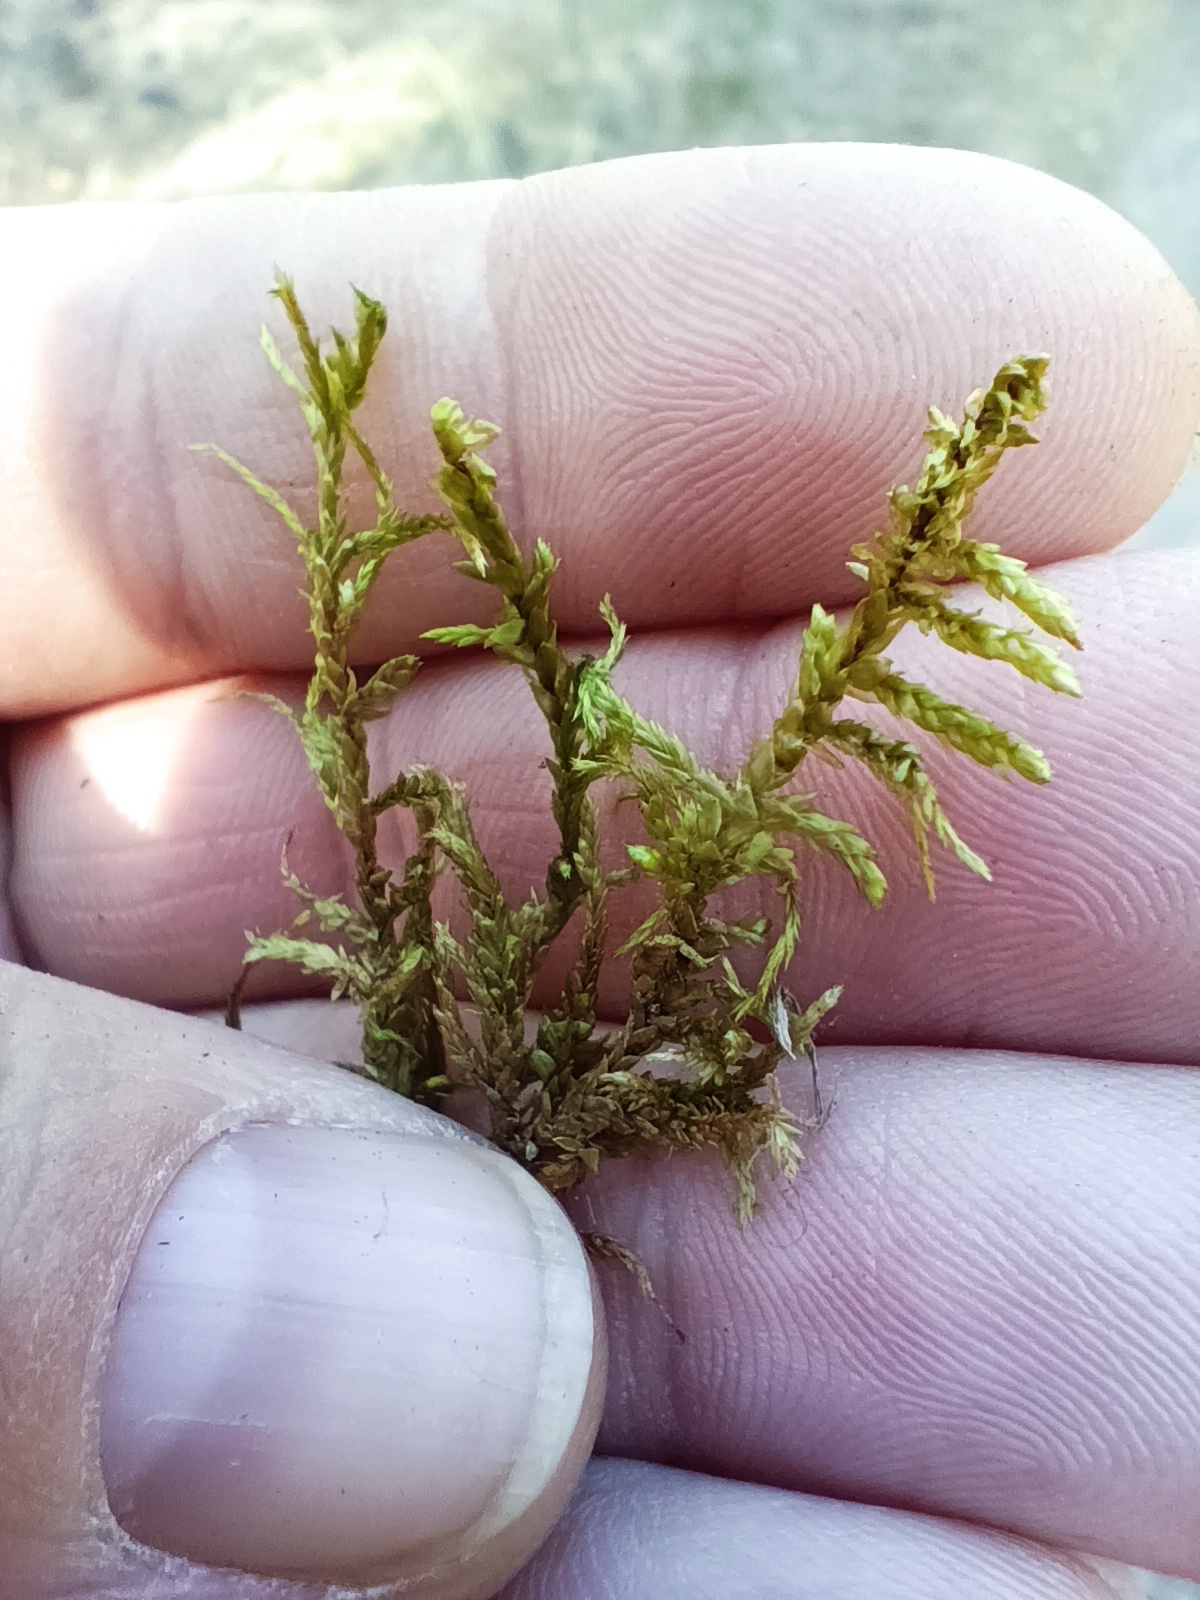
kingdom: Plantae
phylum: Bryophyta
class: Bryopsida
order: Hypnales
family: Hylocomiaceae
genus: Pleurozium
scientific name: Pleurozium schreberi
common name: Red-stemmed feather moss
